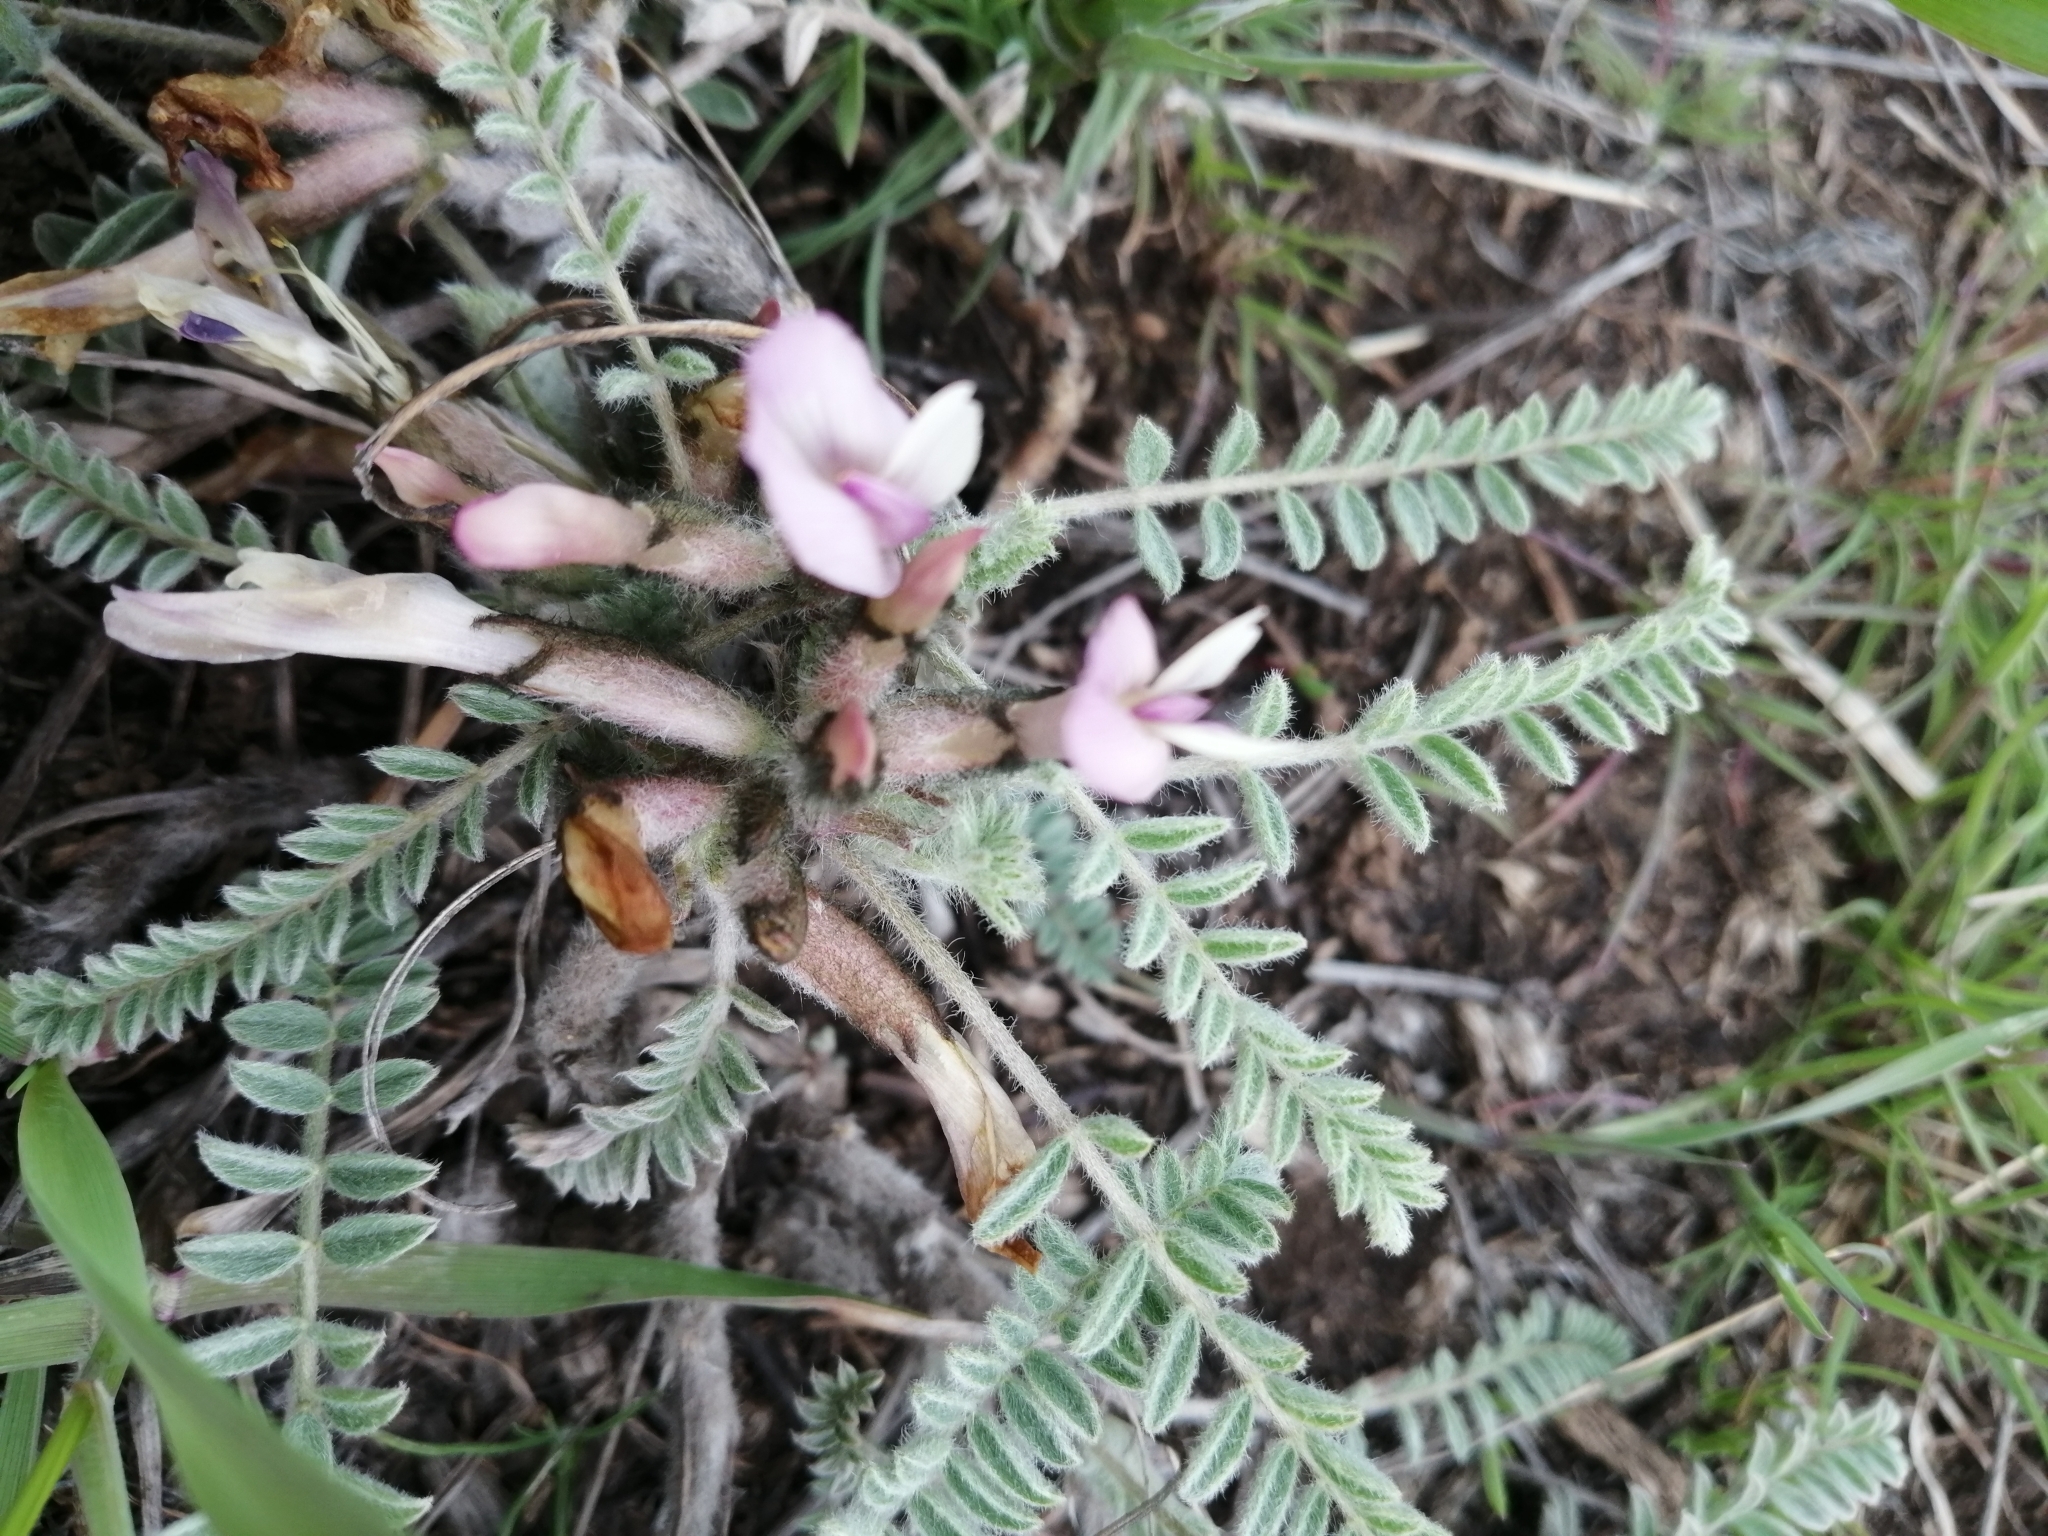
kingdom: Plantae
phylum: Tracheophyta
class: Magnoliopsida
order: Fabales
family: Fabaceae
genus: Astragalus
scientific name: Astragalus testiculatus
